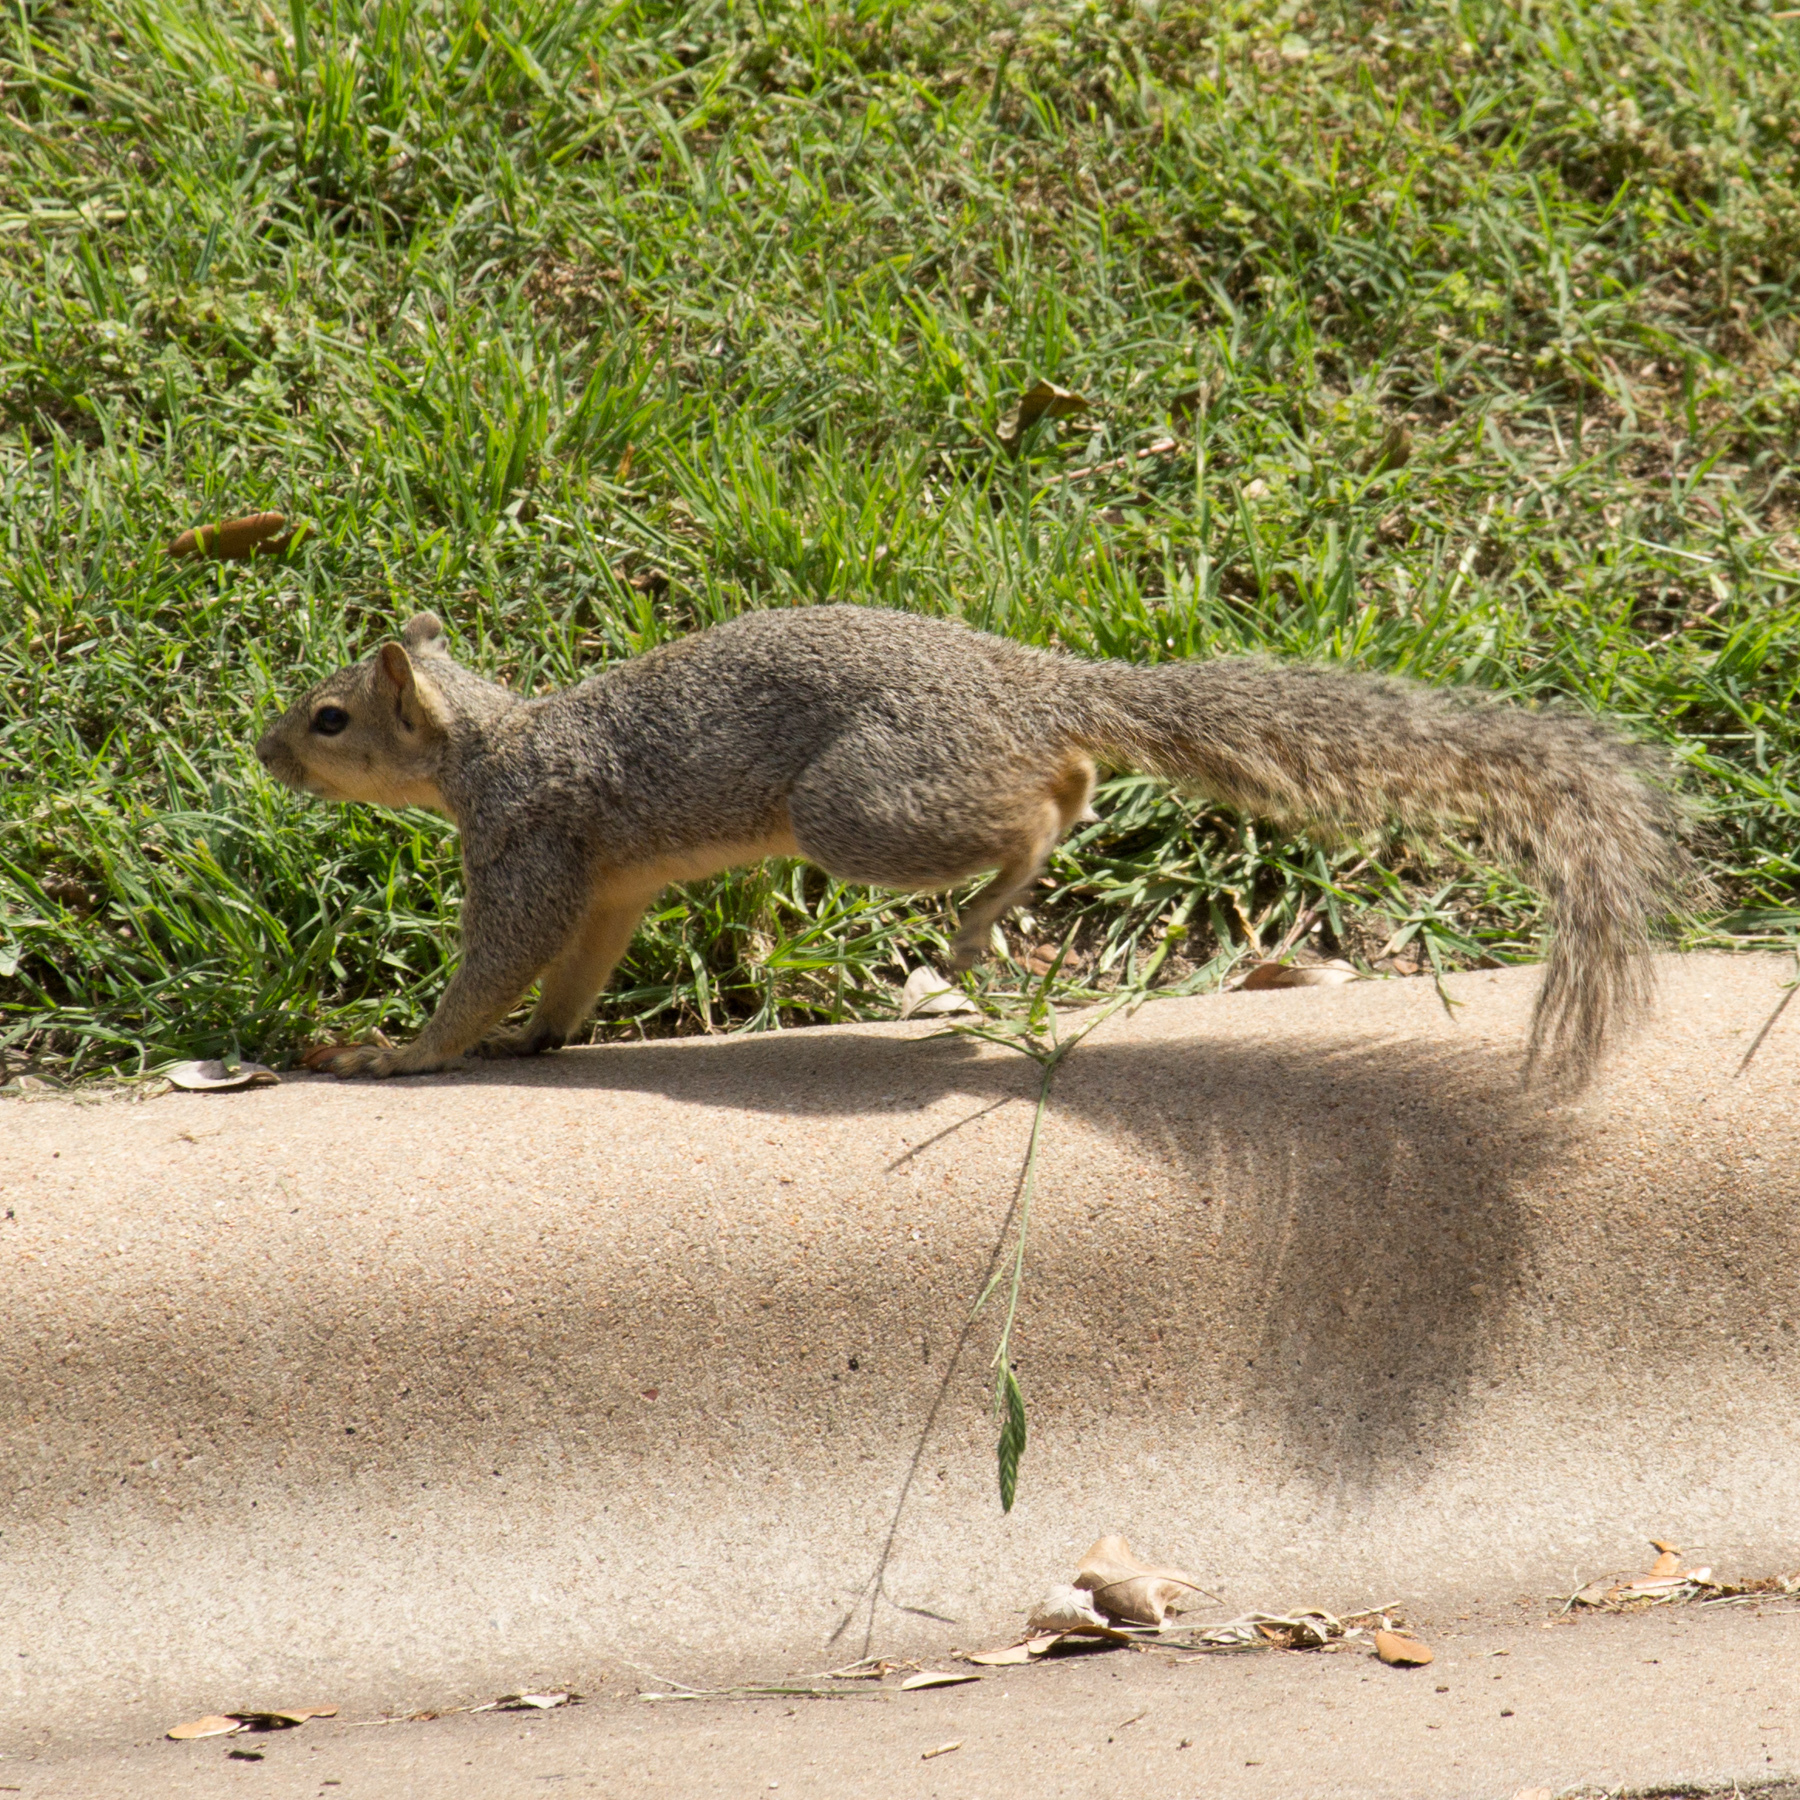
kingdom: Animalia
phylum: Chordata
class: Mammalia
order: Rodentia
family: Sciuridae
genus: Sciurus
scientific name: Sciurus niger
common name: Fox squirrel
